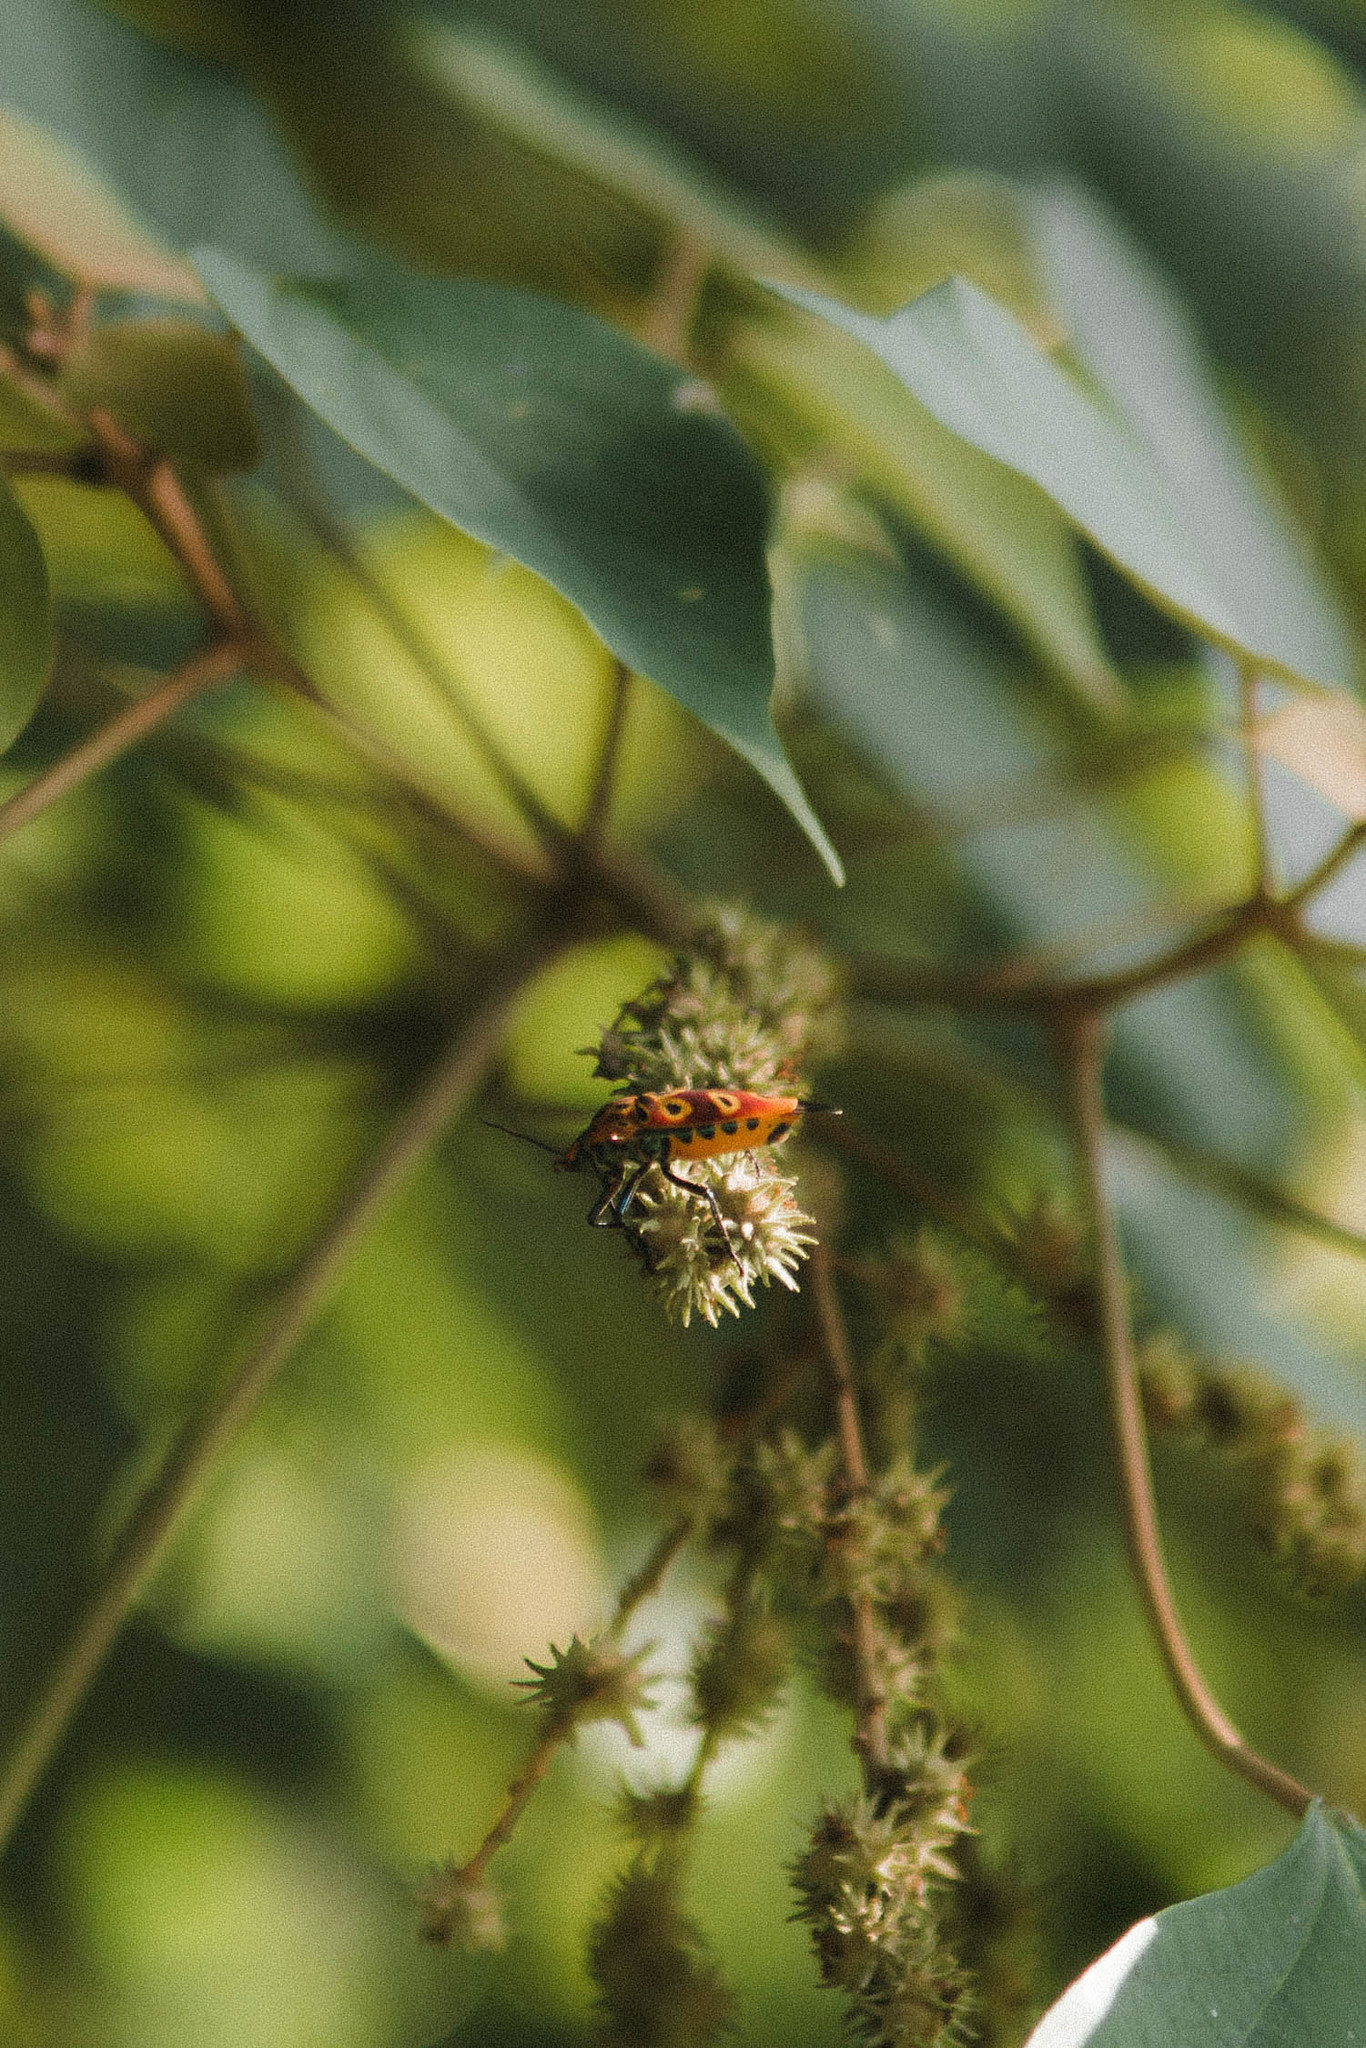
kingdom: Animalia
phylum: Arthropoda
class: Insecta
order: Hemiptera
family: Scutelleridae
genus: Cantao
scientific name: Cantao ocellatus
